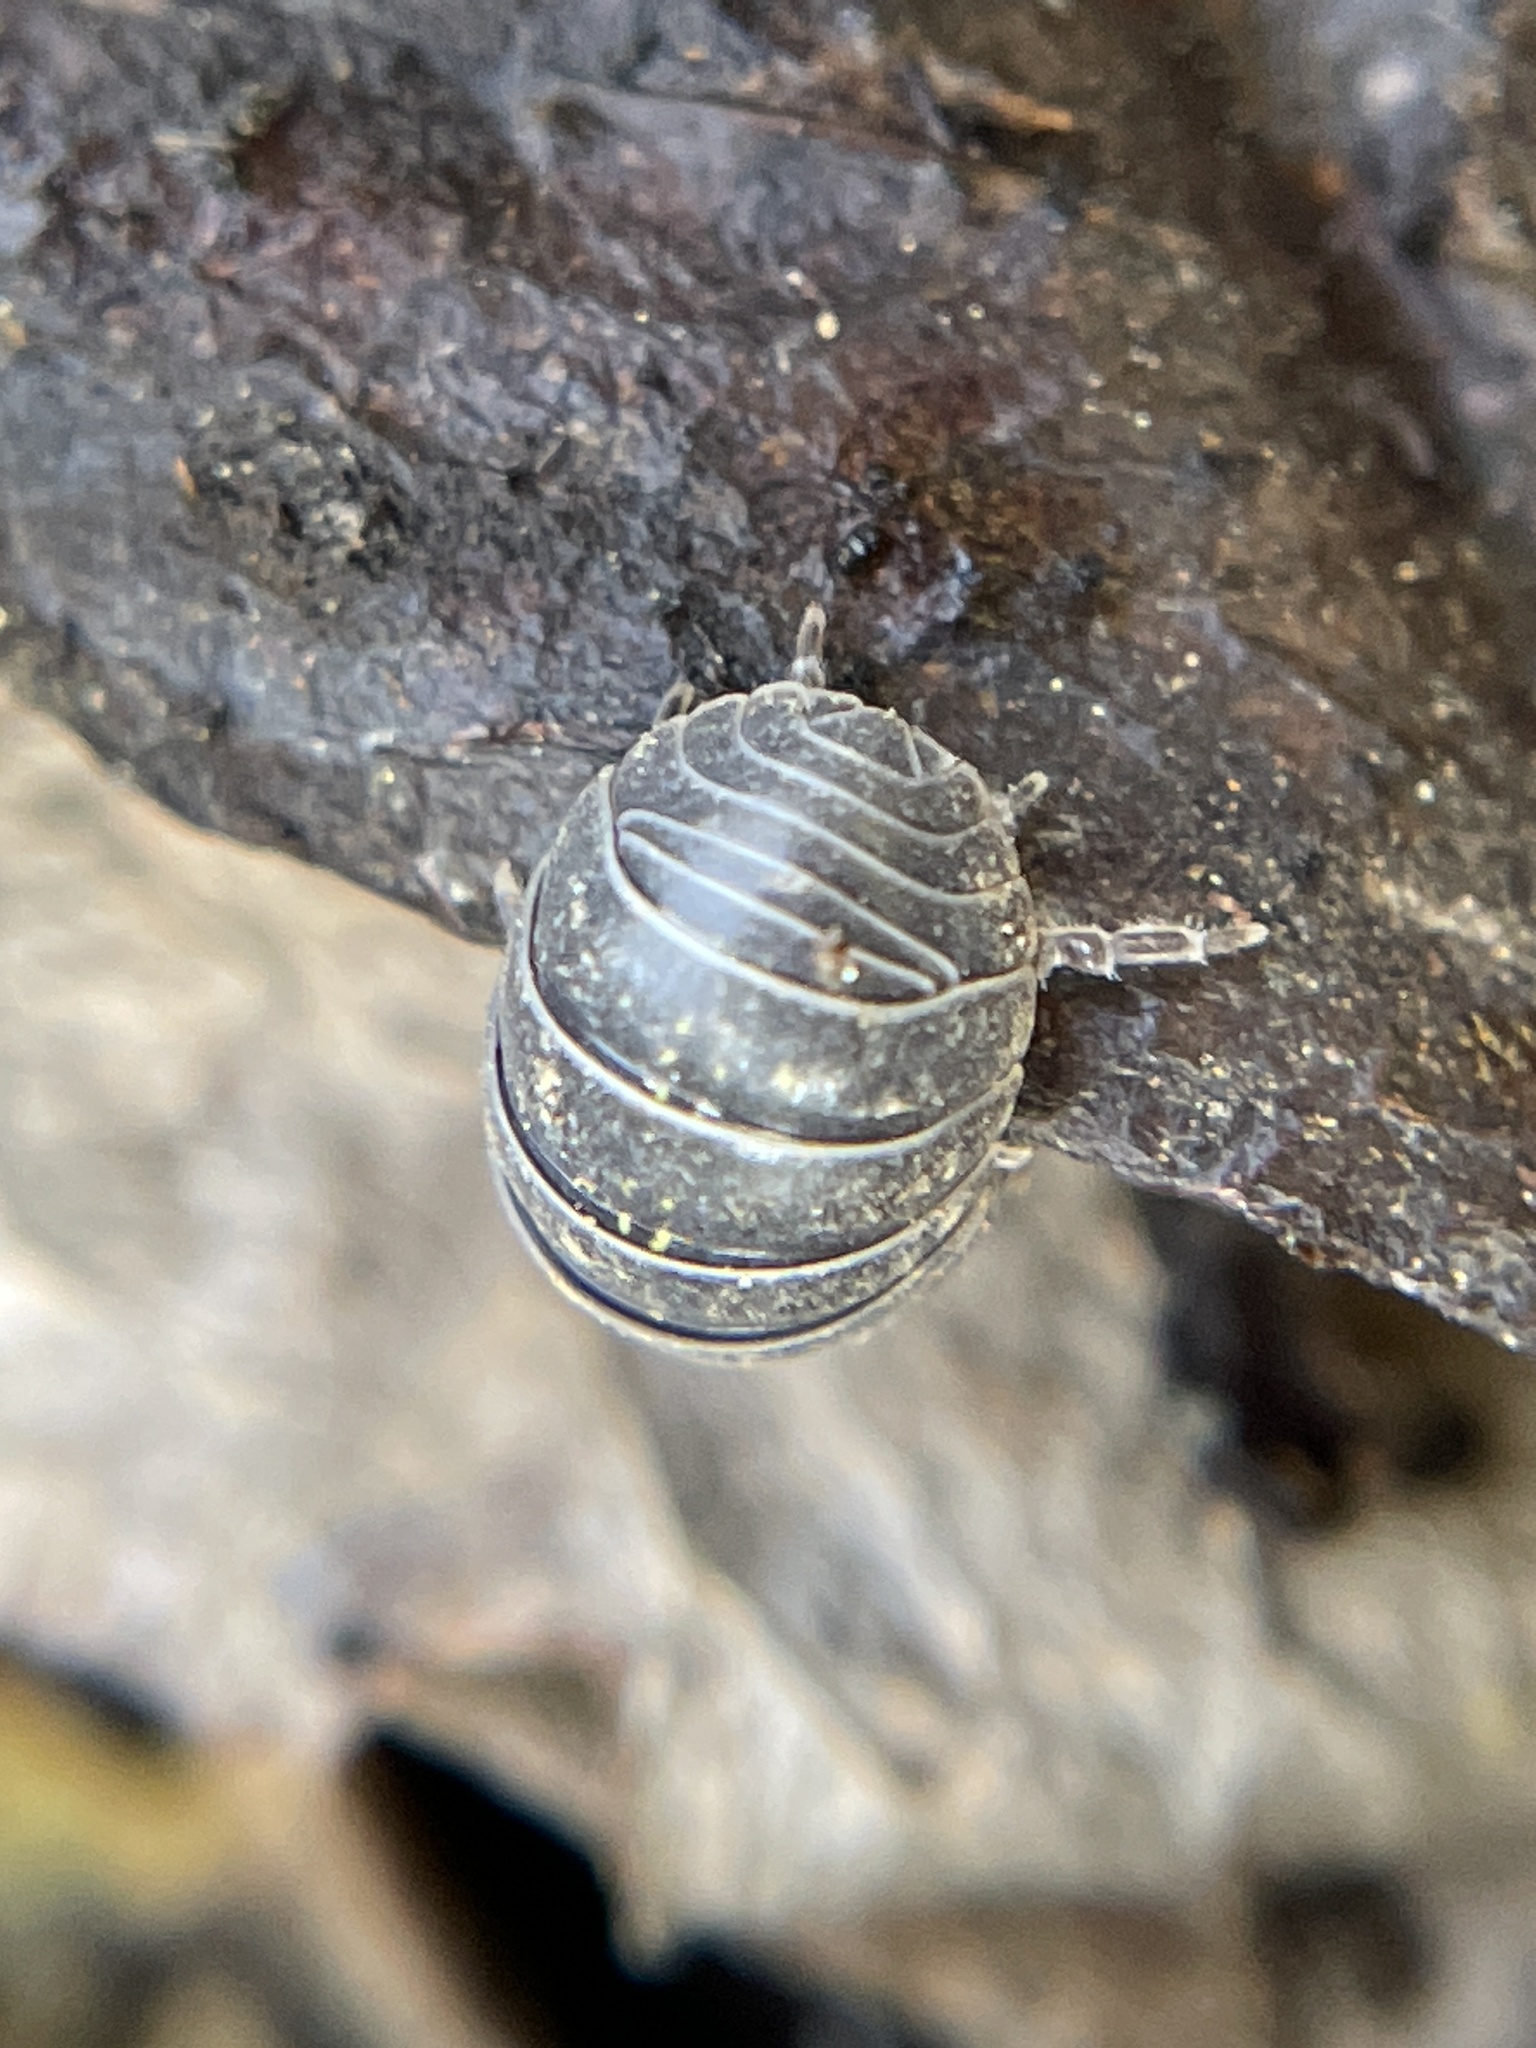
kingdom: Animalia
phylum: Arthropoda
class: Malacostraca
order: Isopoda
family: Armadillidiidae
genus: Armadillidium
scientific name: Armadillidium vulgare
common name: Common pill woodlouse
